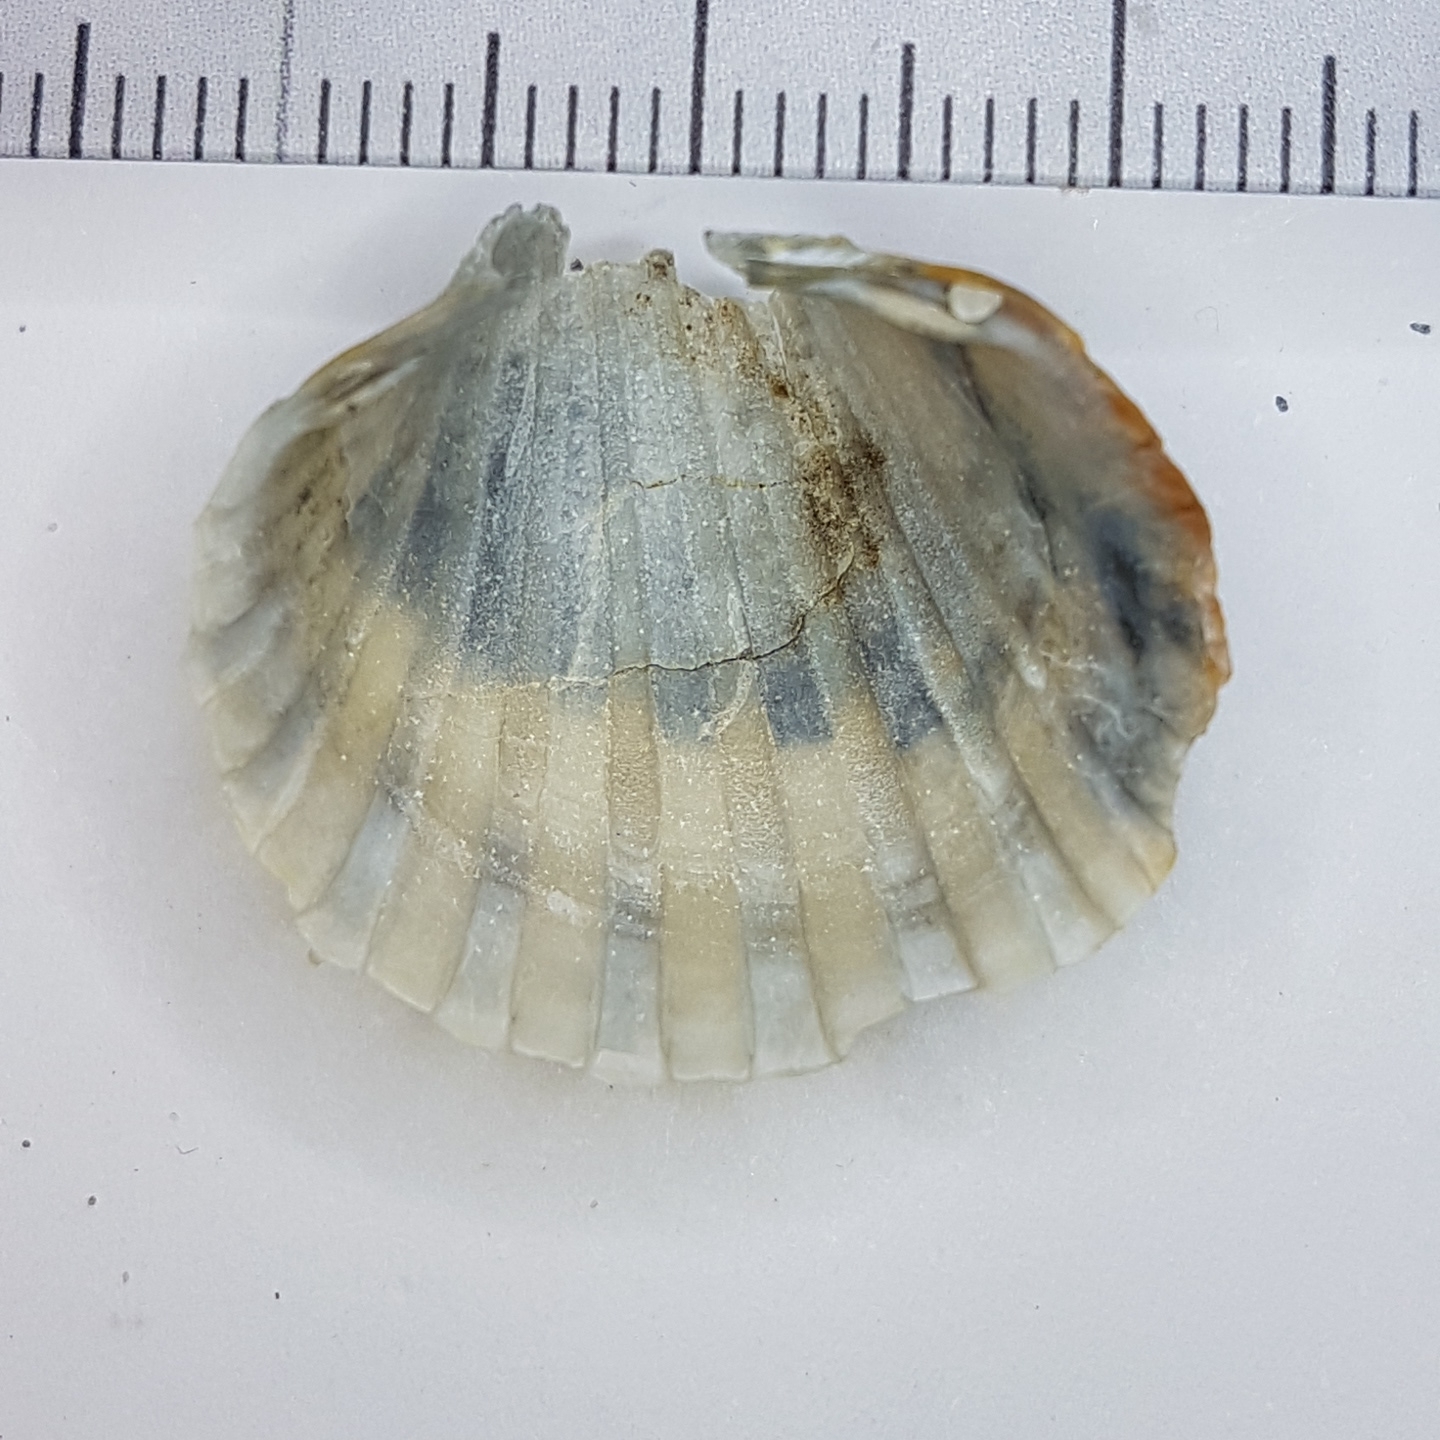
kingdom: Animalia
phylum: Mollusca
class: Bivalvia
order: Cardiida
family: Cardiidae
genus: Acanthocardia
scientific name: Acanthocardia paucicostata
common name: Poorly ribbed cockle
